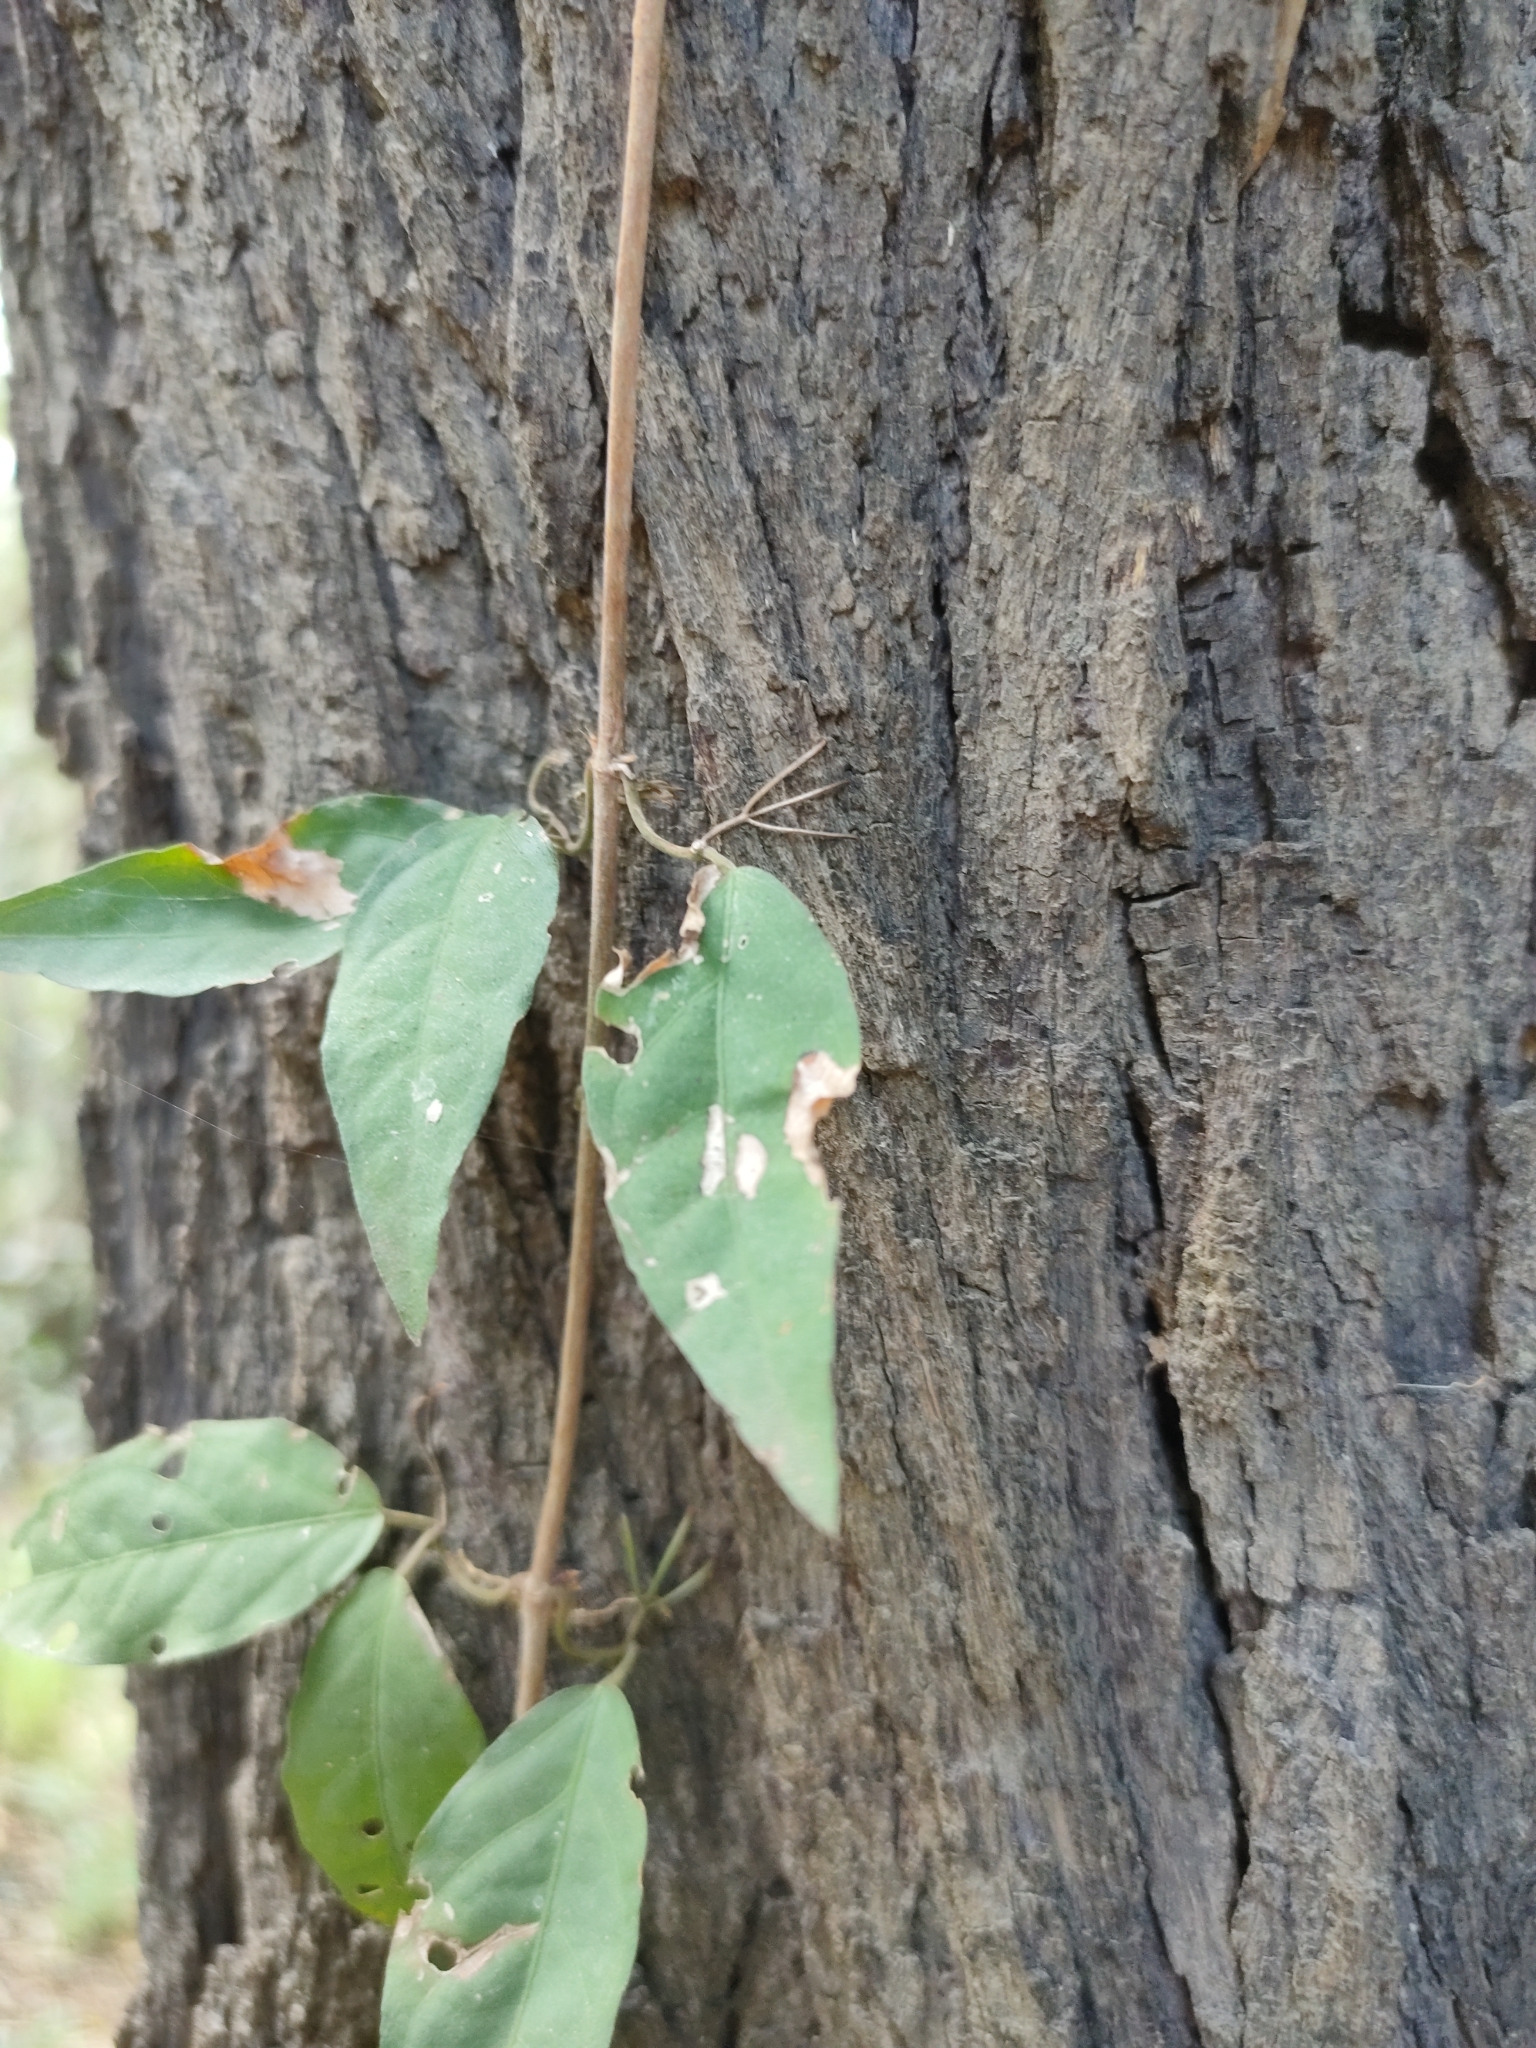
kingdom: Plantae
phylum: Tracheophyta
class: Magnoliopsida
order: Lamiales
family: Bignoniaceae
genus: Dolichandra
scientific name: Dolichandra unguis-cati
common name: Catclaw vine
